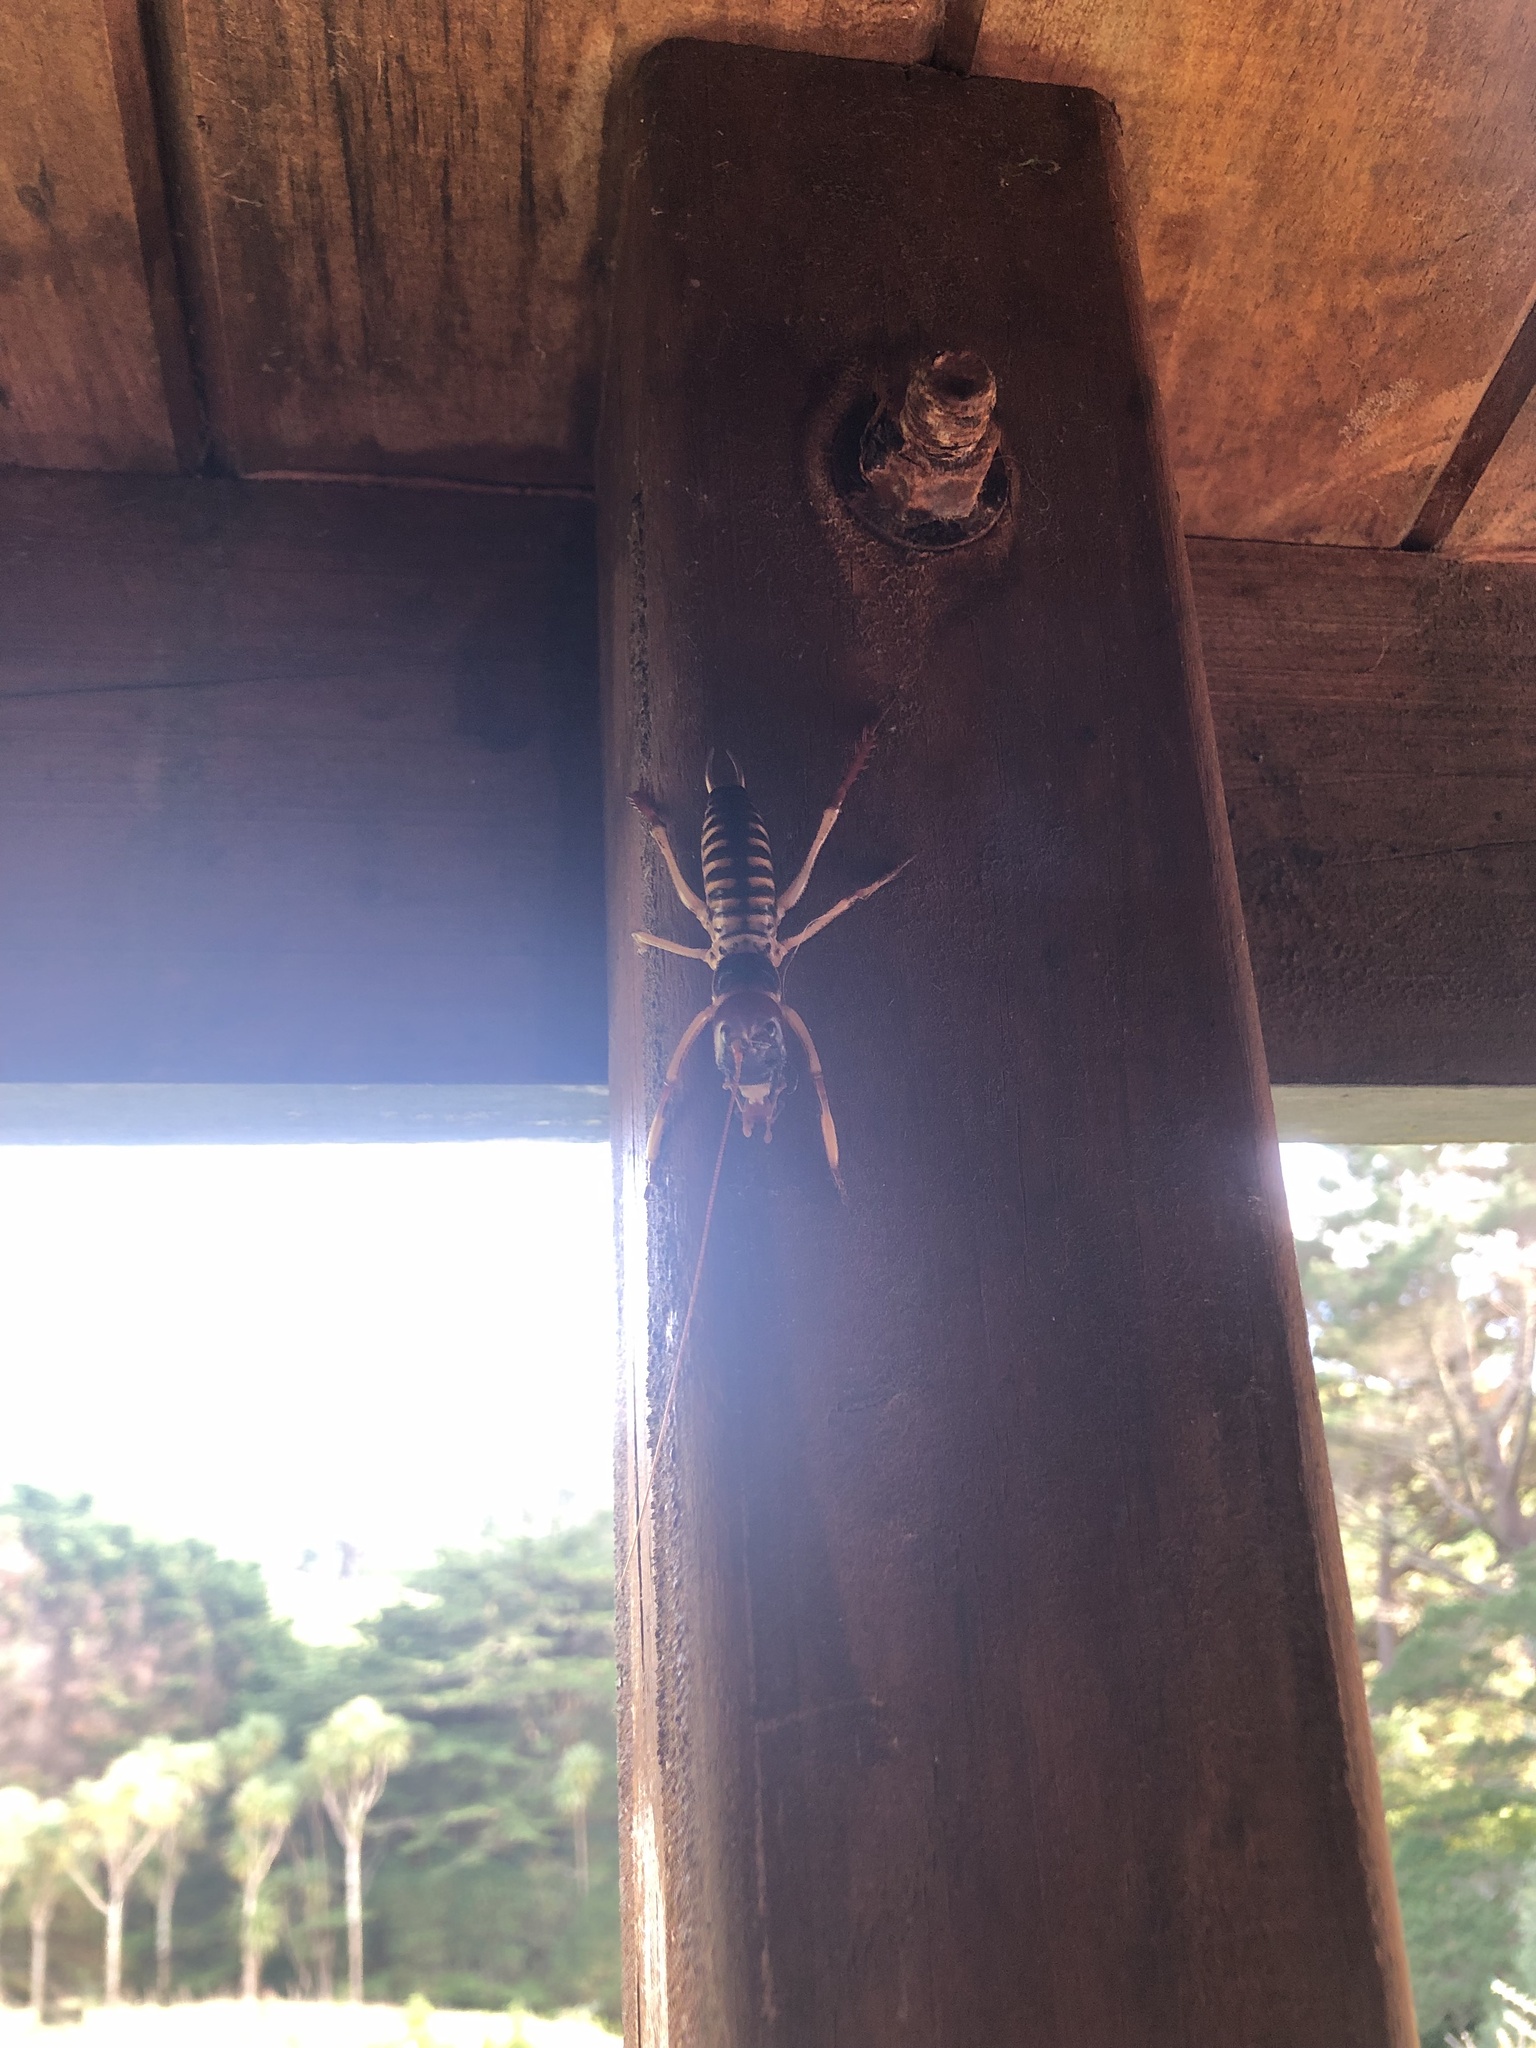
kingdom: Animalia
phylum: Arthropoda
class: Insecta
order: Orthoptera
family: Anostostomatidae
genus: Hemideina
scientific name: Hemideina crassidens
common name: Wellington tree weta
